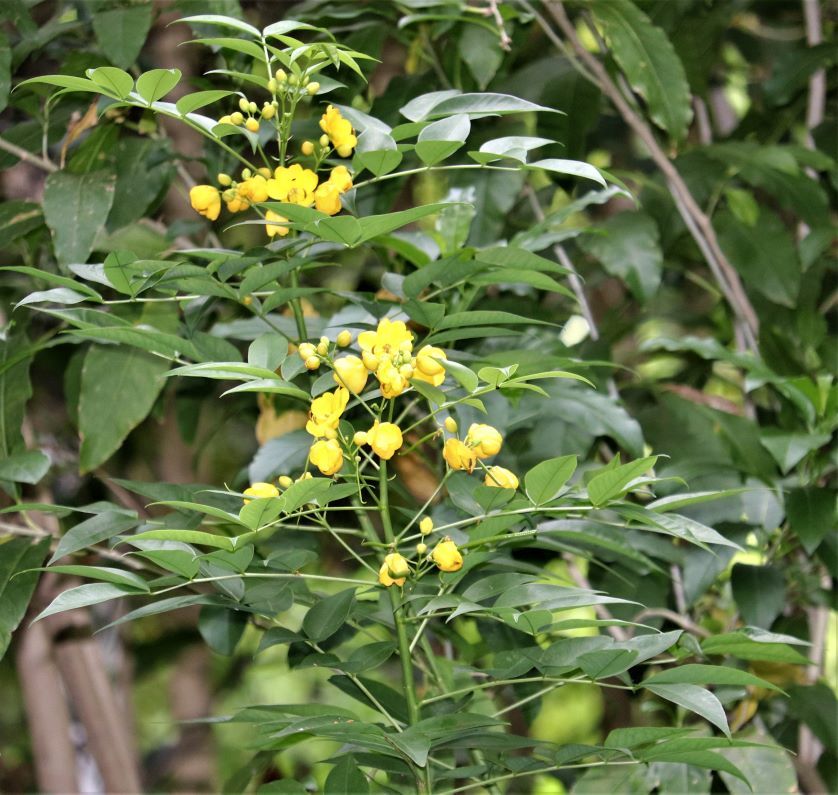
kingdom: Plantae
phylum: Tracheophyta
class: Magnoliopsida
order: Fabales
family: Fabaceae
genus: Senna
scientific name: Senna septemtrionalis
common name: Arsenic bush
